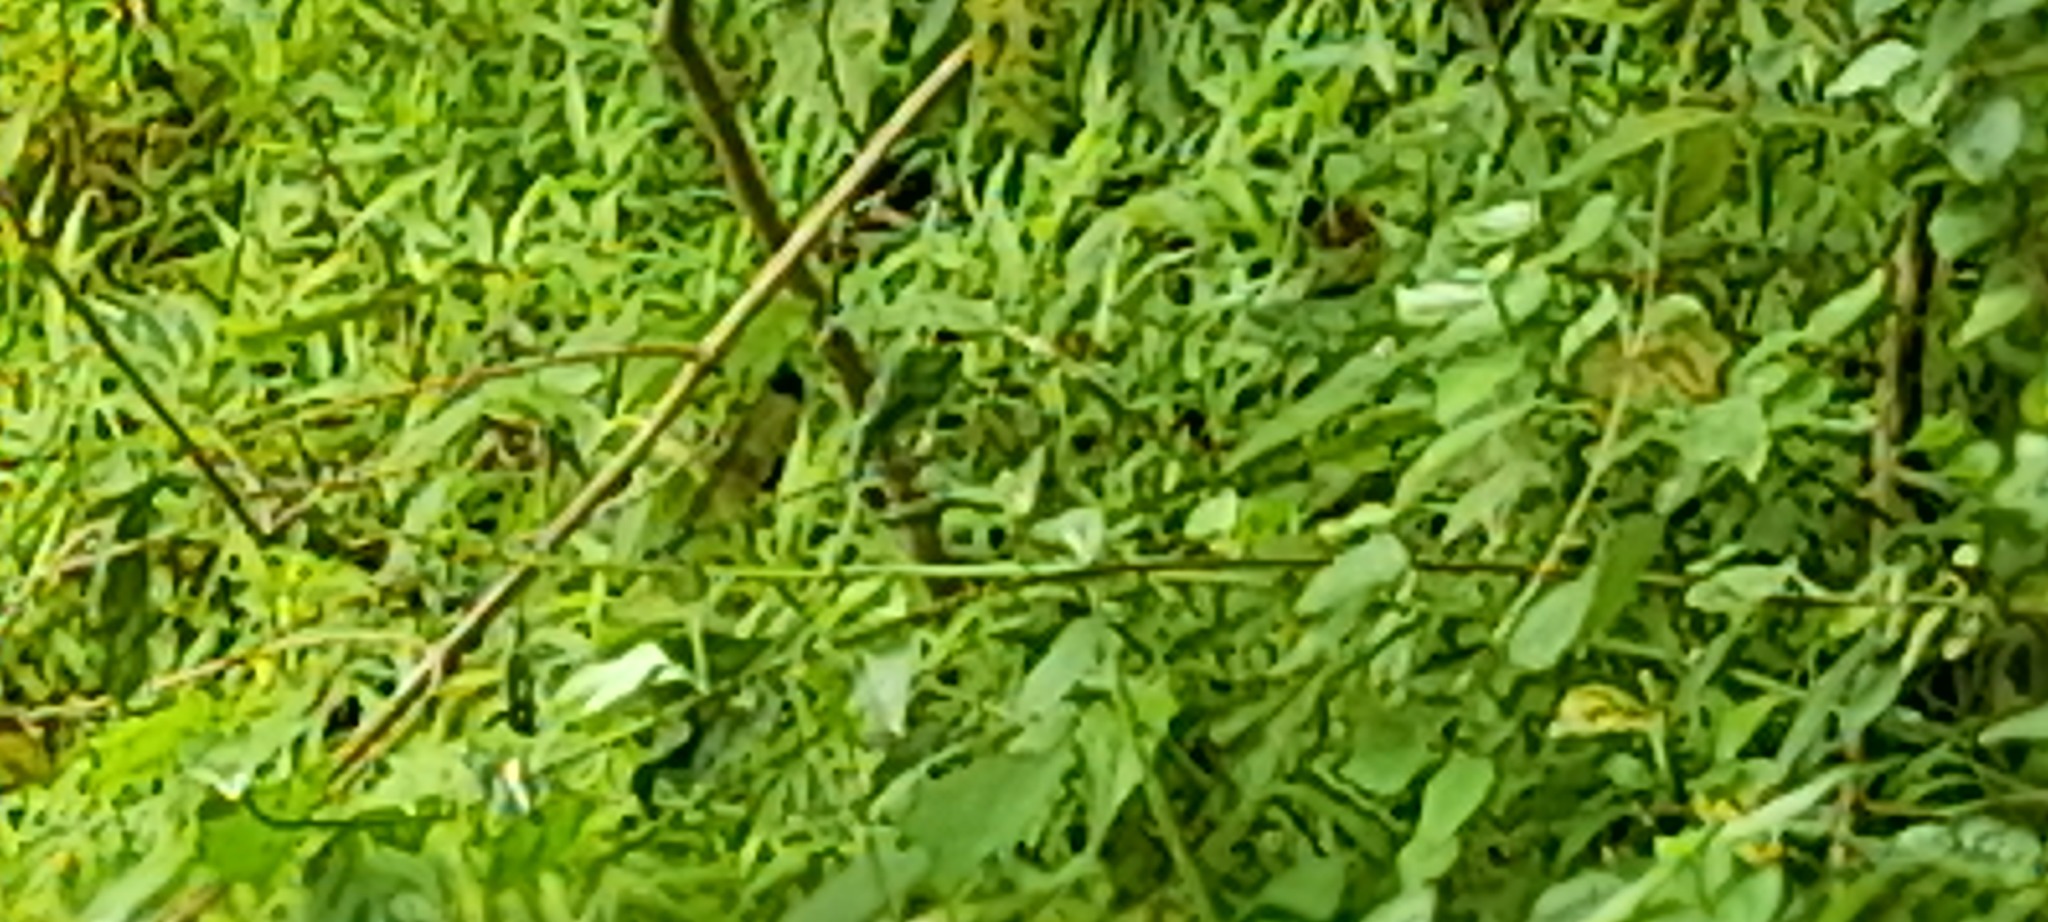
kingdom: Animalia
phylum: Arthropoda
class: Insecta
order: Odonata
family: Calopterygidae
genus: Vestalis
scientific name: Vestalis apicalis
